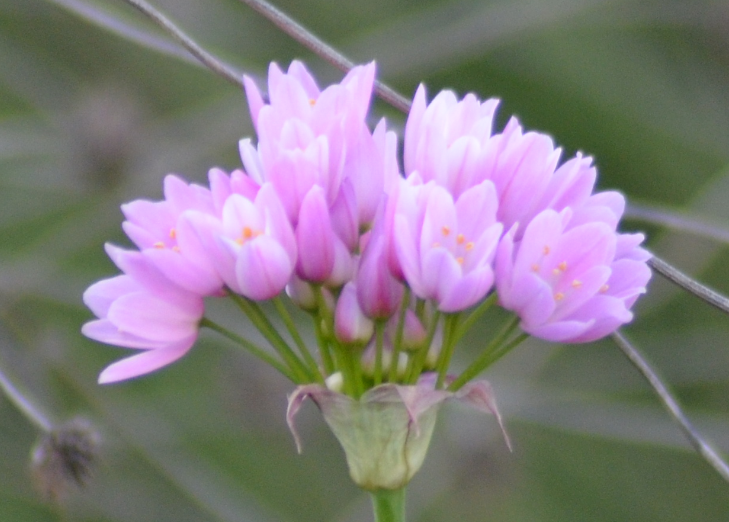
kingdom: Plantae
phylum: Tracheophyta
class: Liliopsida
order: Asparagales
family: Amaryllidaceae
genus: Allium
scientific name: Allium roseum
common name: Rosy garlic
